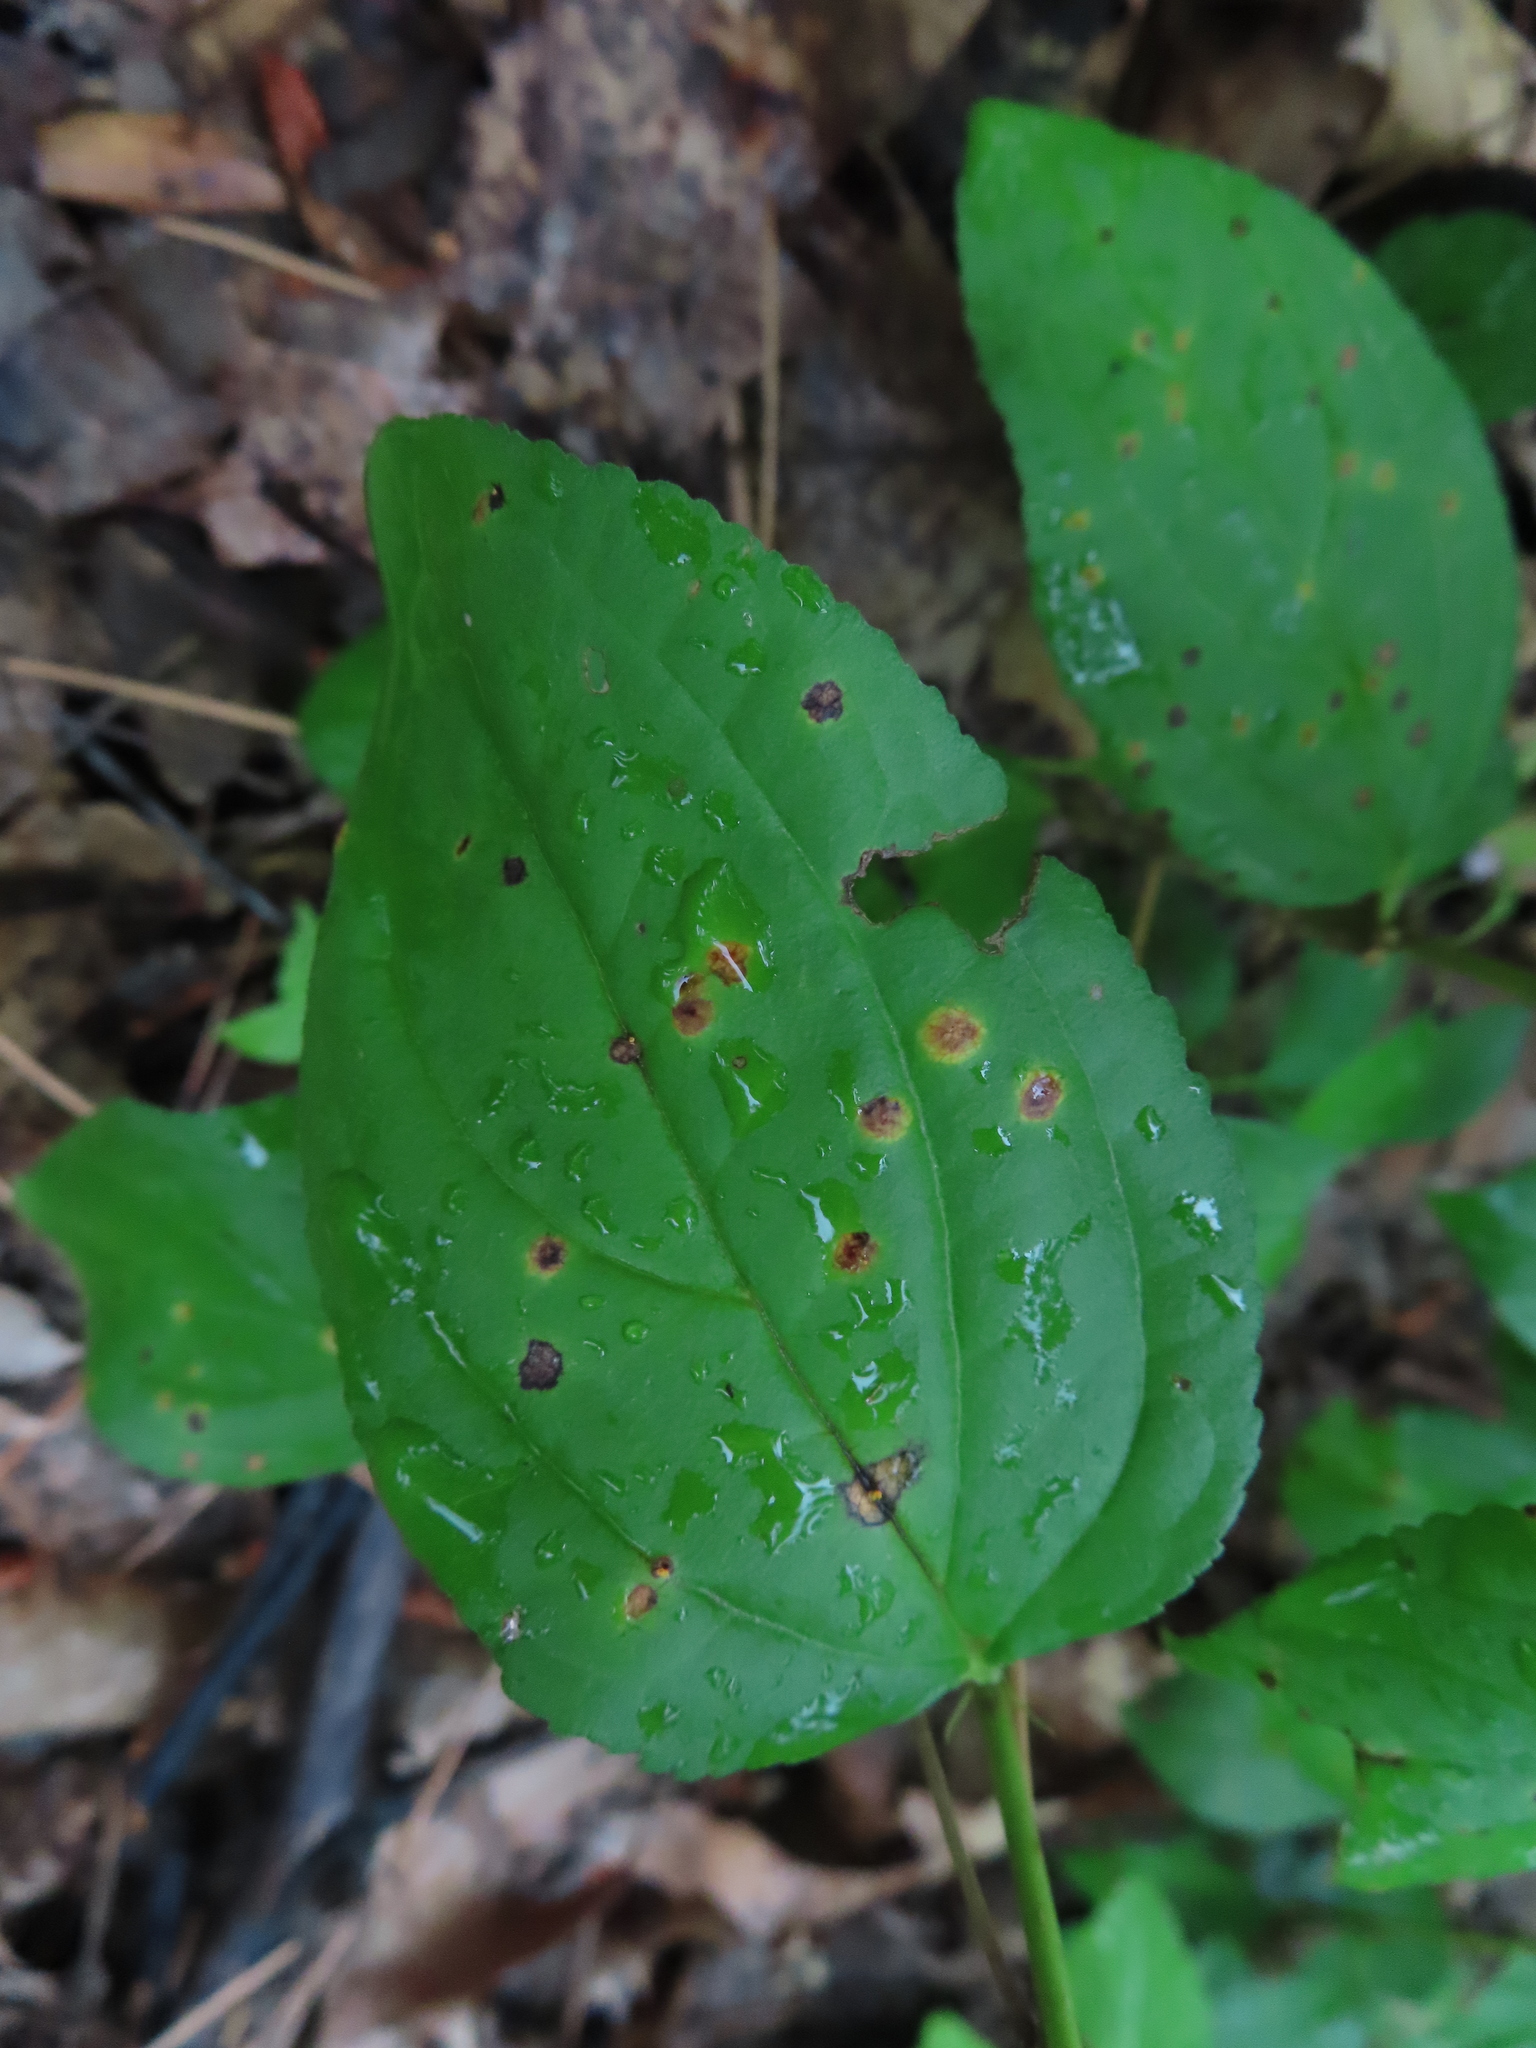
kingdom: Plantae
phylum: Tracheophyta
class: Magnoliopsida
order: Rosales
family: Rhamnaceae
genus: Rhamnus
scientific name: Rhamnus cathartica
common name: Common buckthorn
